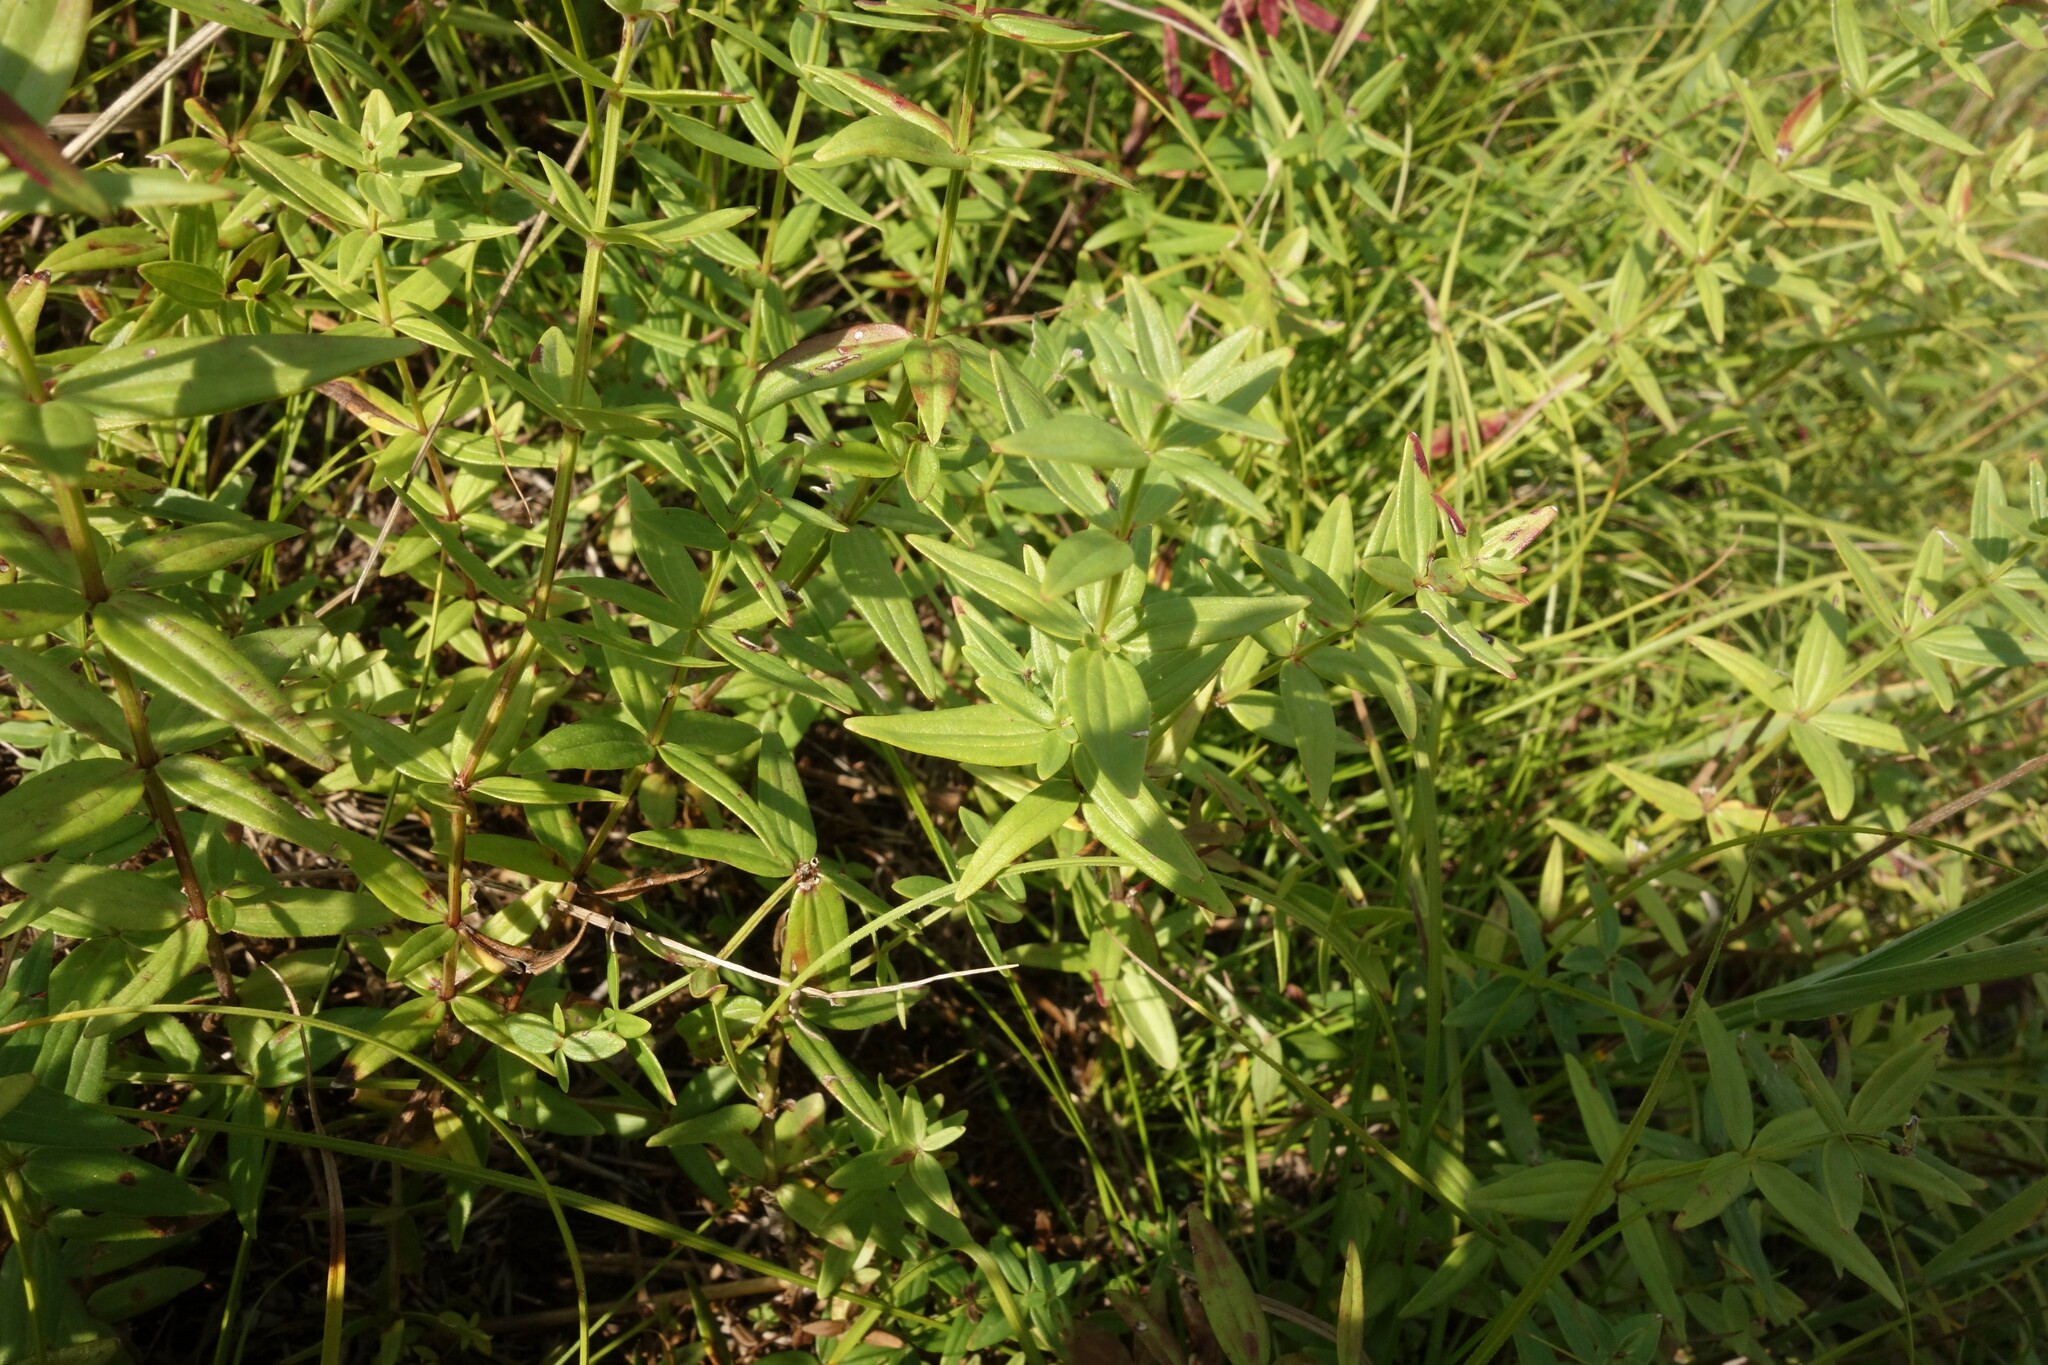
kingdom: Plantae
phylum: Tracheophyta
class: Magnoliopsida
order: Gentianales
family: Rubiaceae
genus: Galium
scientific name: Galium boreale
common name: Northern bedstraw
